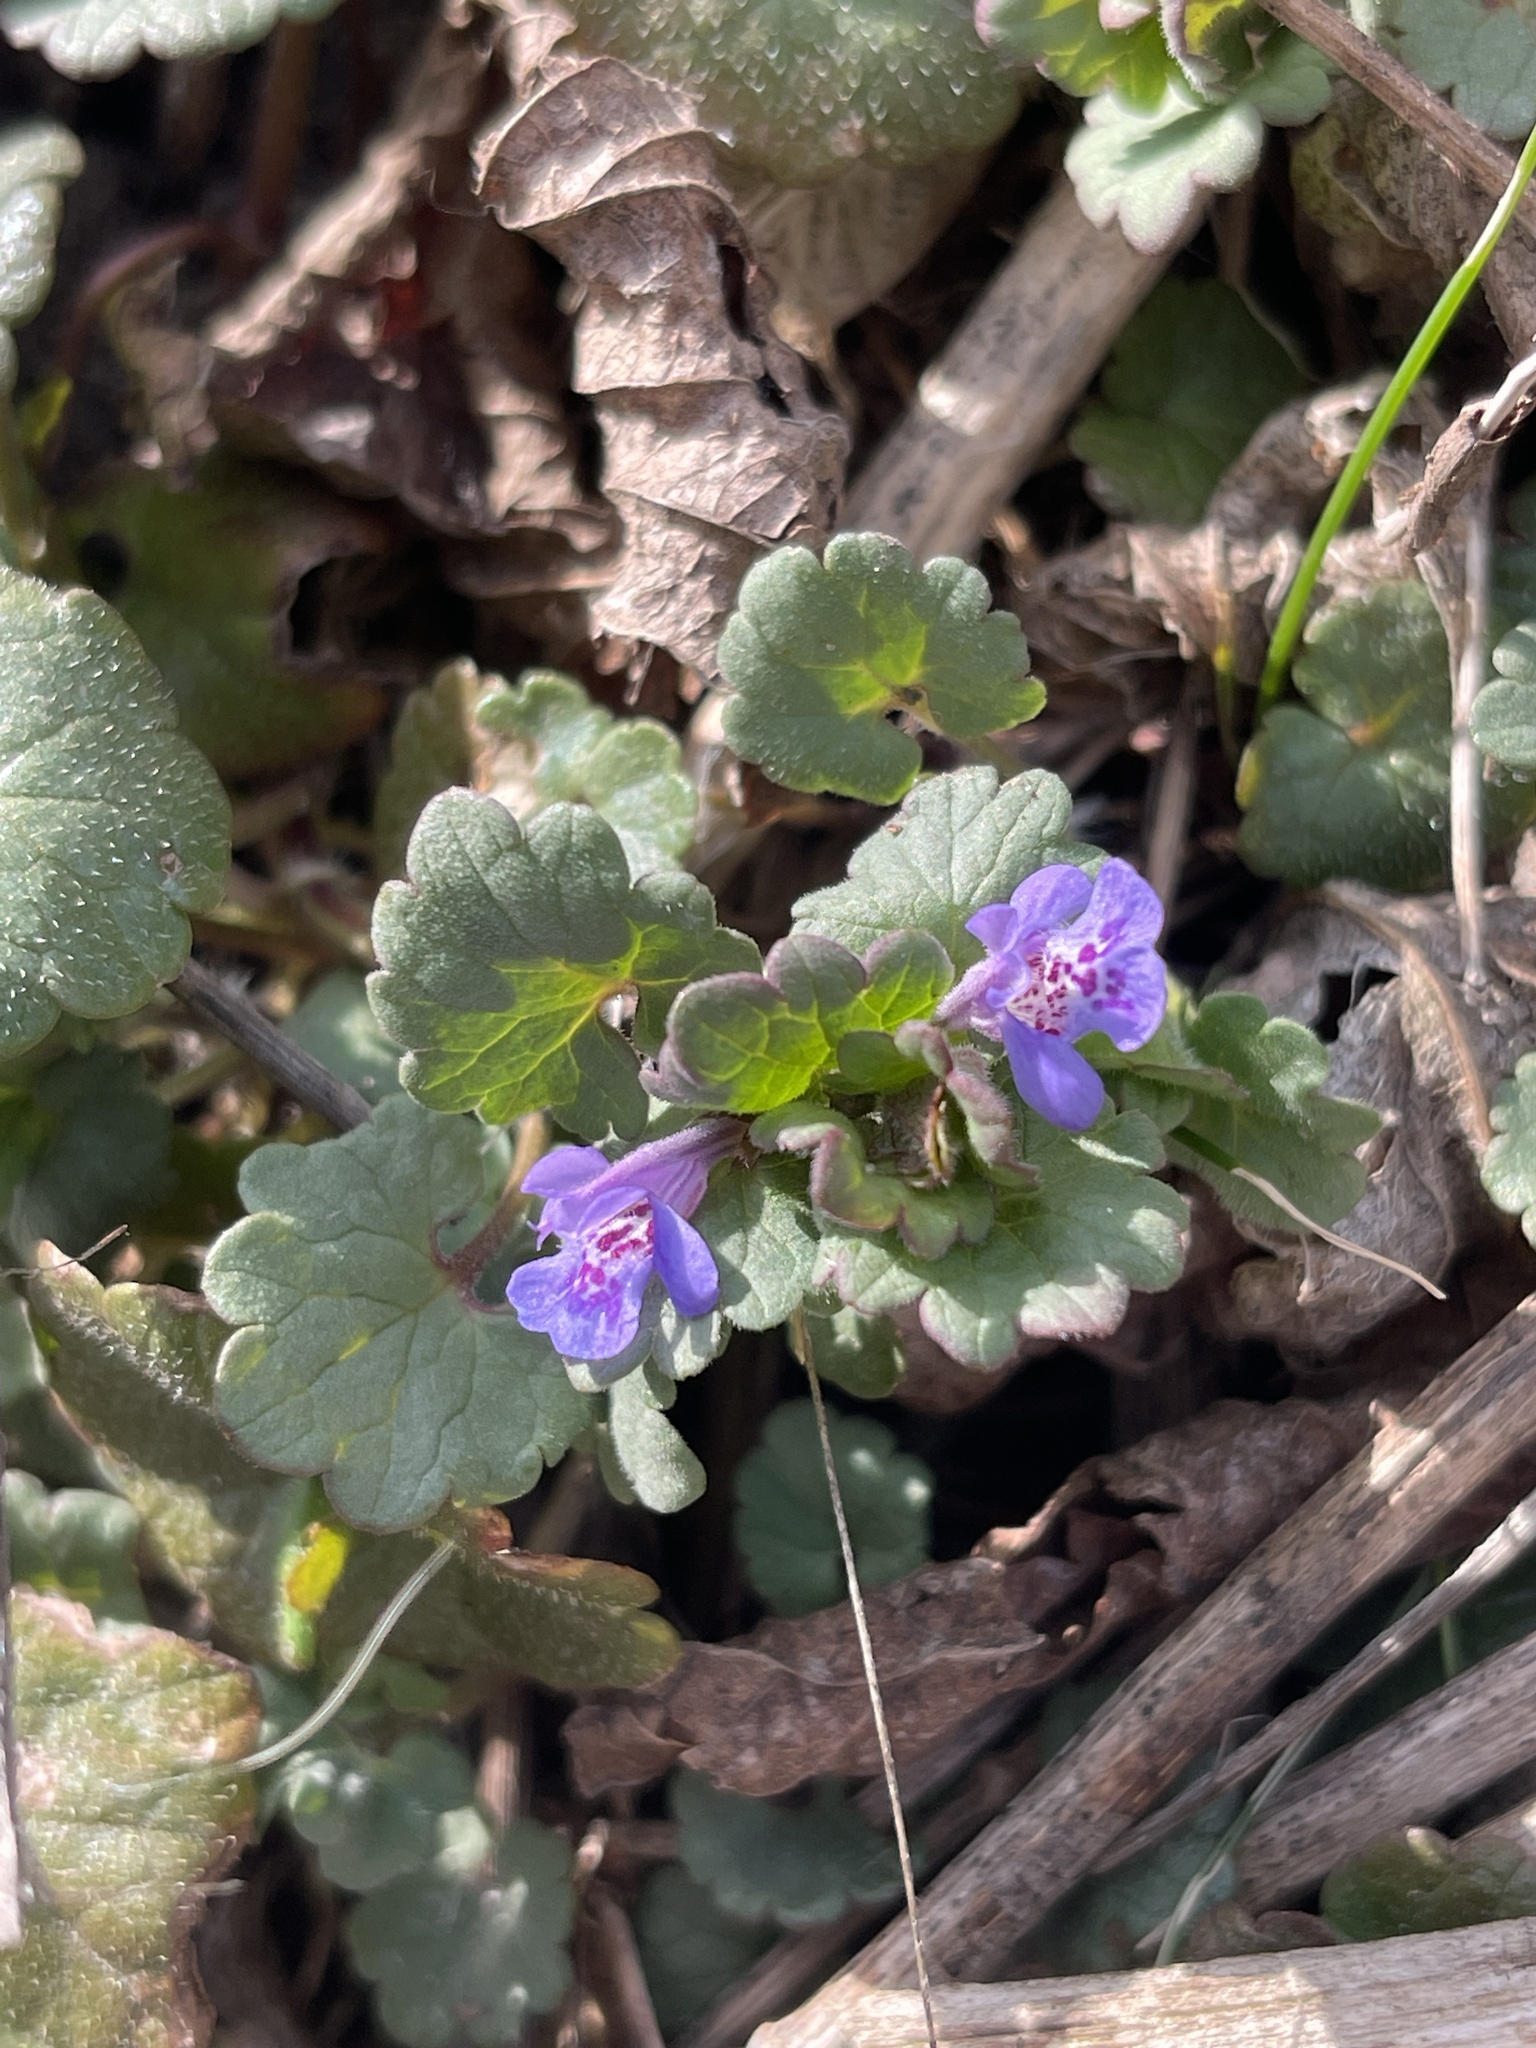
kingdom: Plantae
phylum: Tracheophyta
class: Magnoliopsida
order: Lamiales
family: Lamiaceae
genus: Glechoma
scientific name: Glechoma hederacea
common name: Ground ivy
